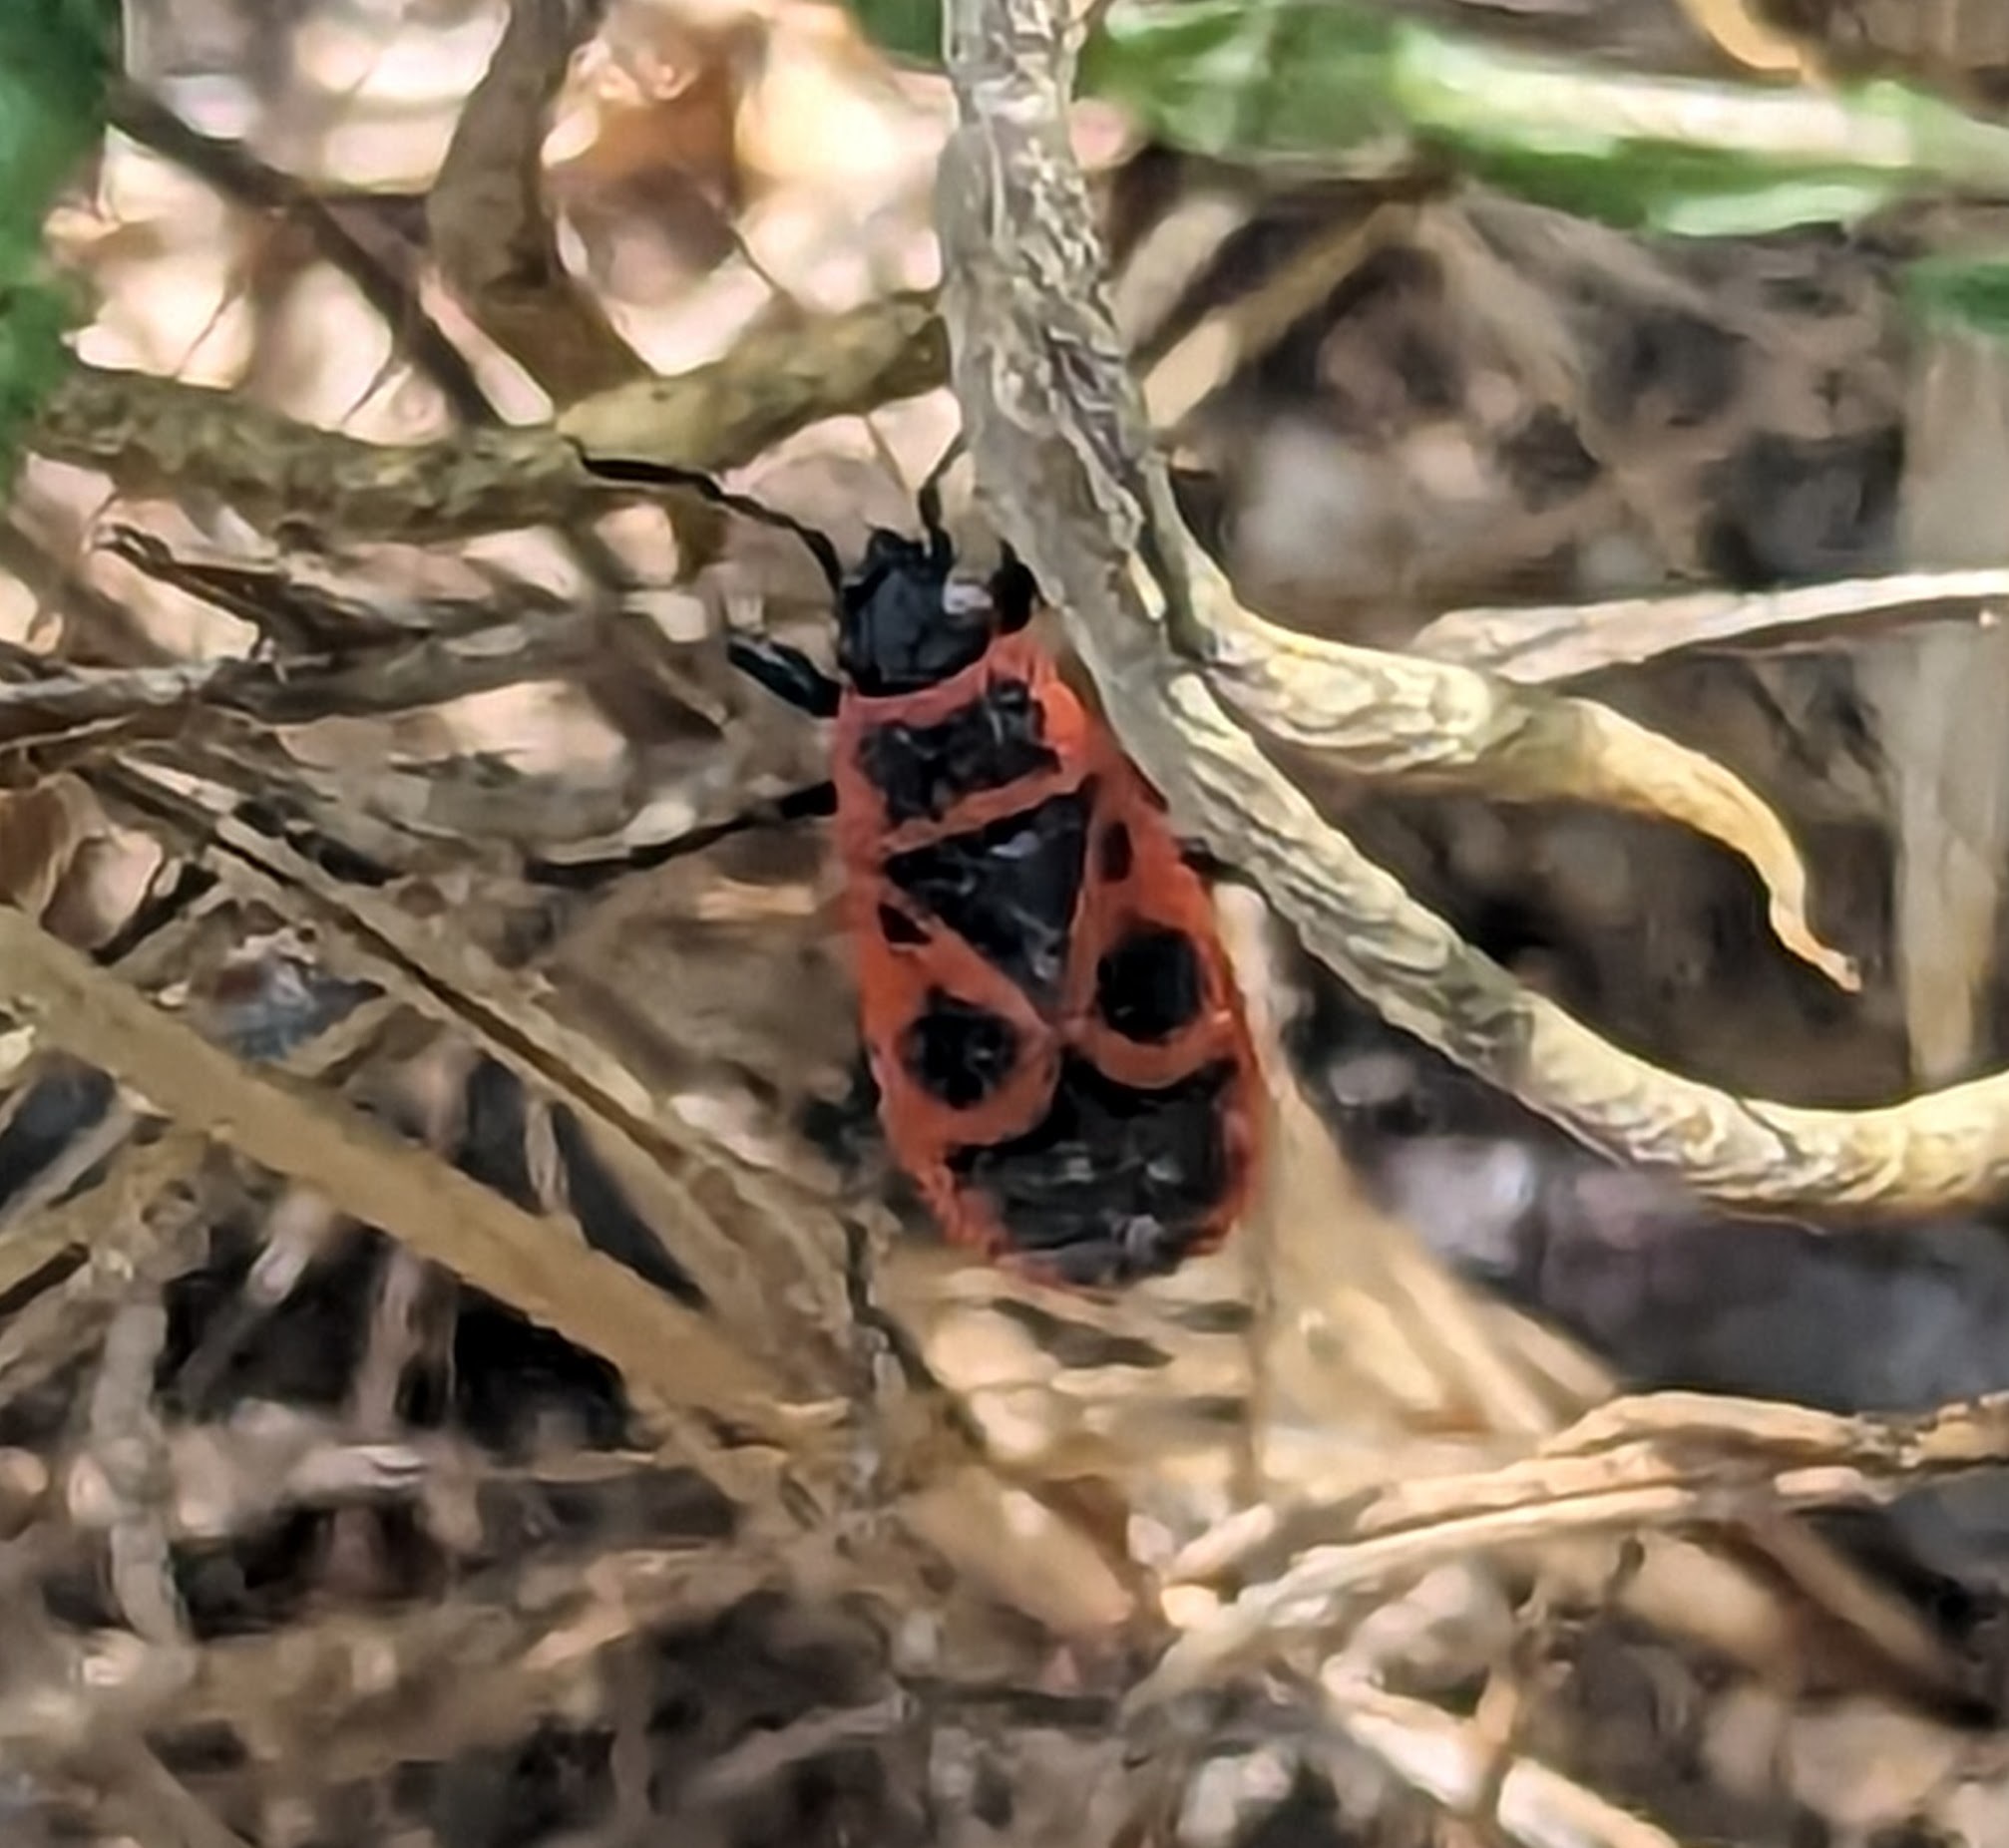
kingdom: Animalia
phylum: Arthropoda
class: Insecta
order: Hemiptera
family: Pyrrhocoridae
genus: Pyrrhocoris
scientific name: Pyrrhocoris apterus
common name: Firebug
